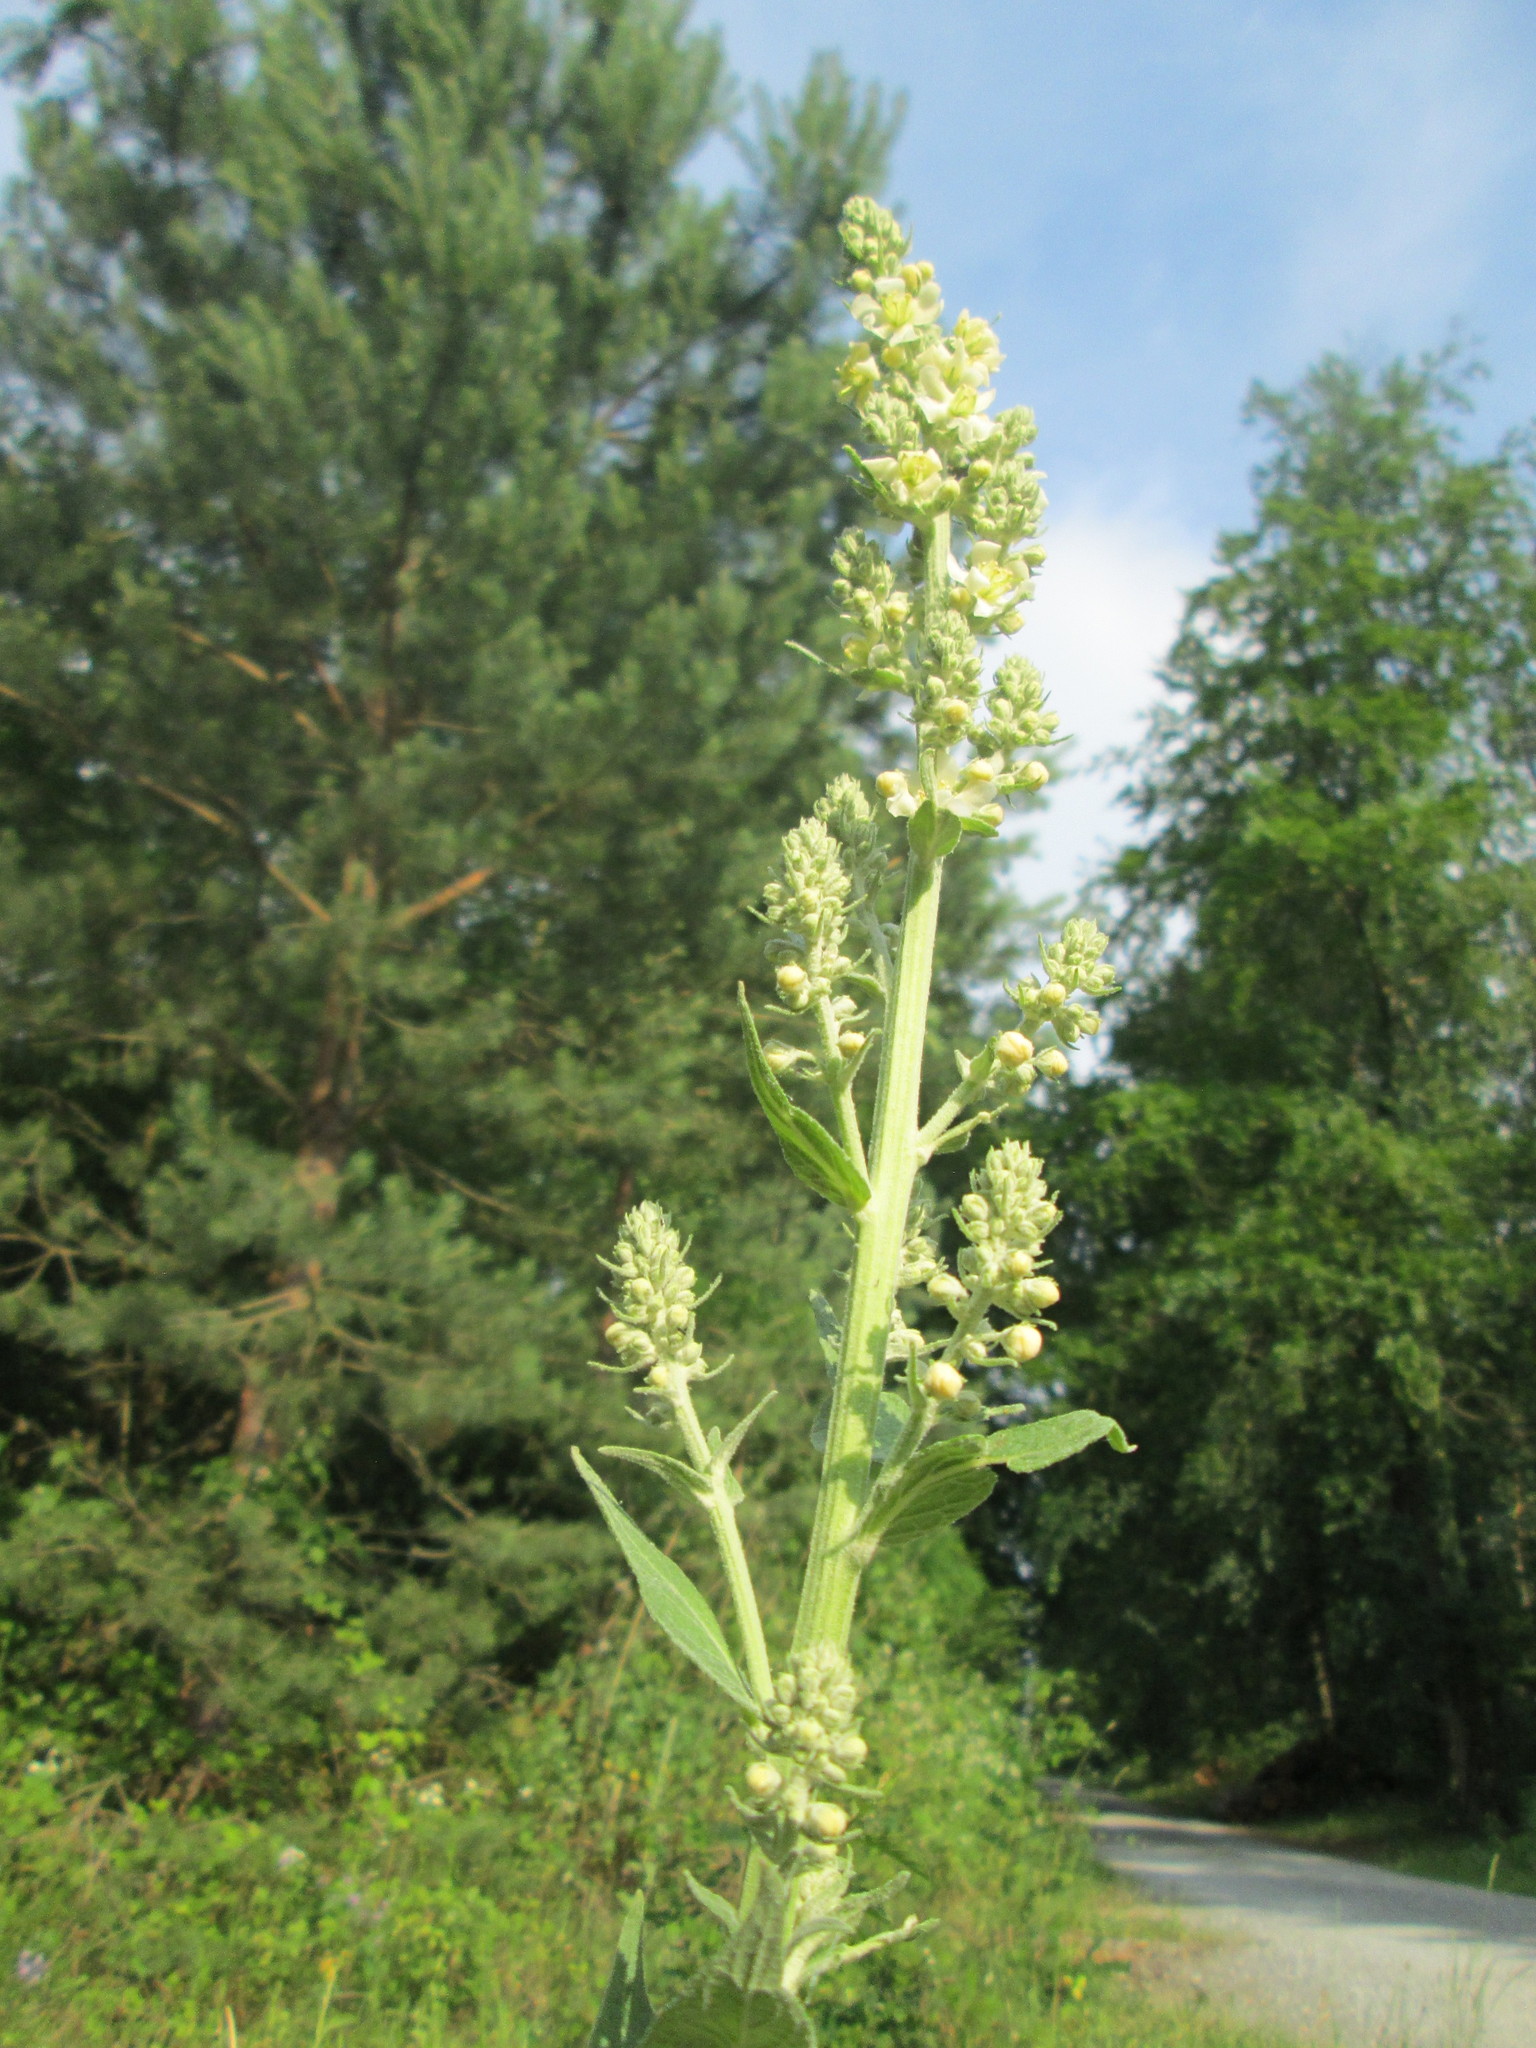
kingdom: Plantae
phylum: Tracheophyta
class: Magnoliopsida
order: Lamiales
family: Scrophulariaceae
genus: Verbascum
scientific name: Verbascum lychnitis
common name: White mullein
